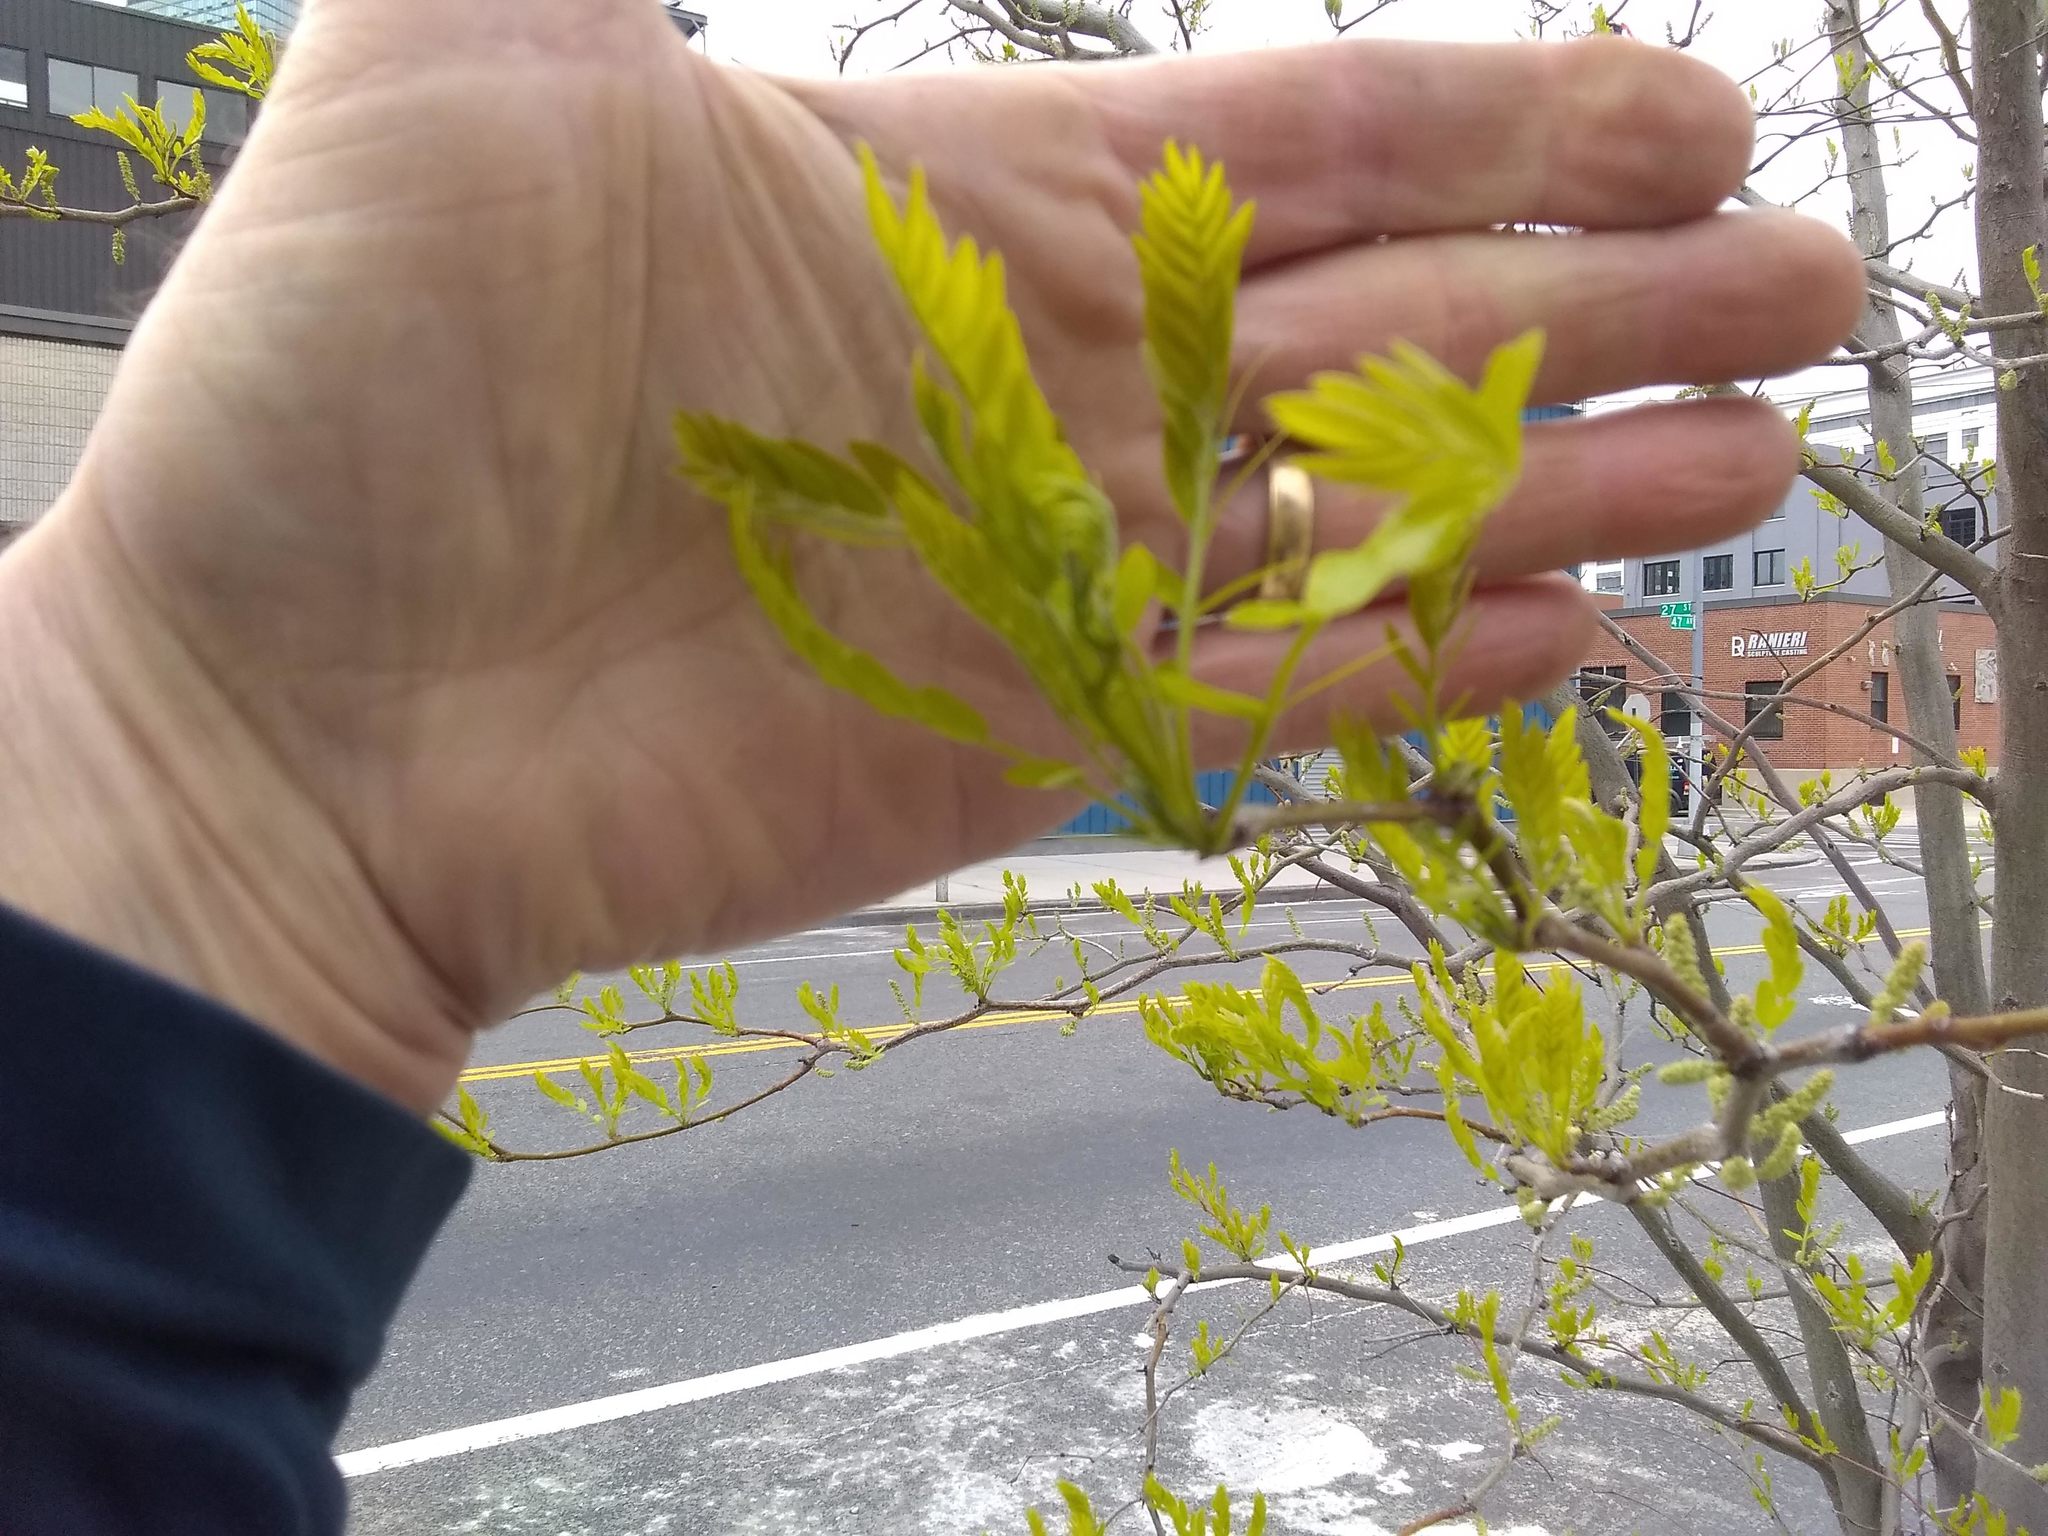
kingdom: Plantae
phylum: Tracheophyta
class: Magnoliopsida
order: Fabales
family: Fabaceae
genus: Gleditsia
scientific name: Gleditsia triacanthos
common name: Common honeylocust
